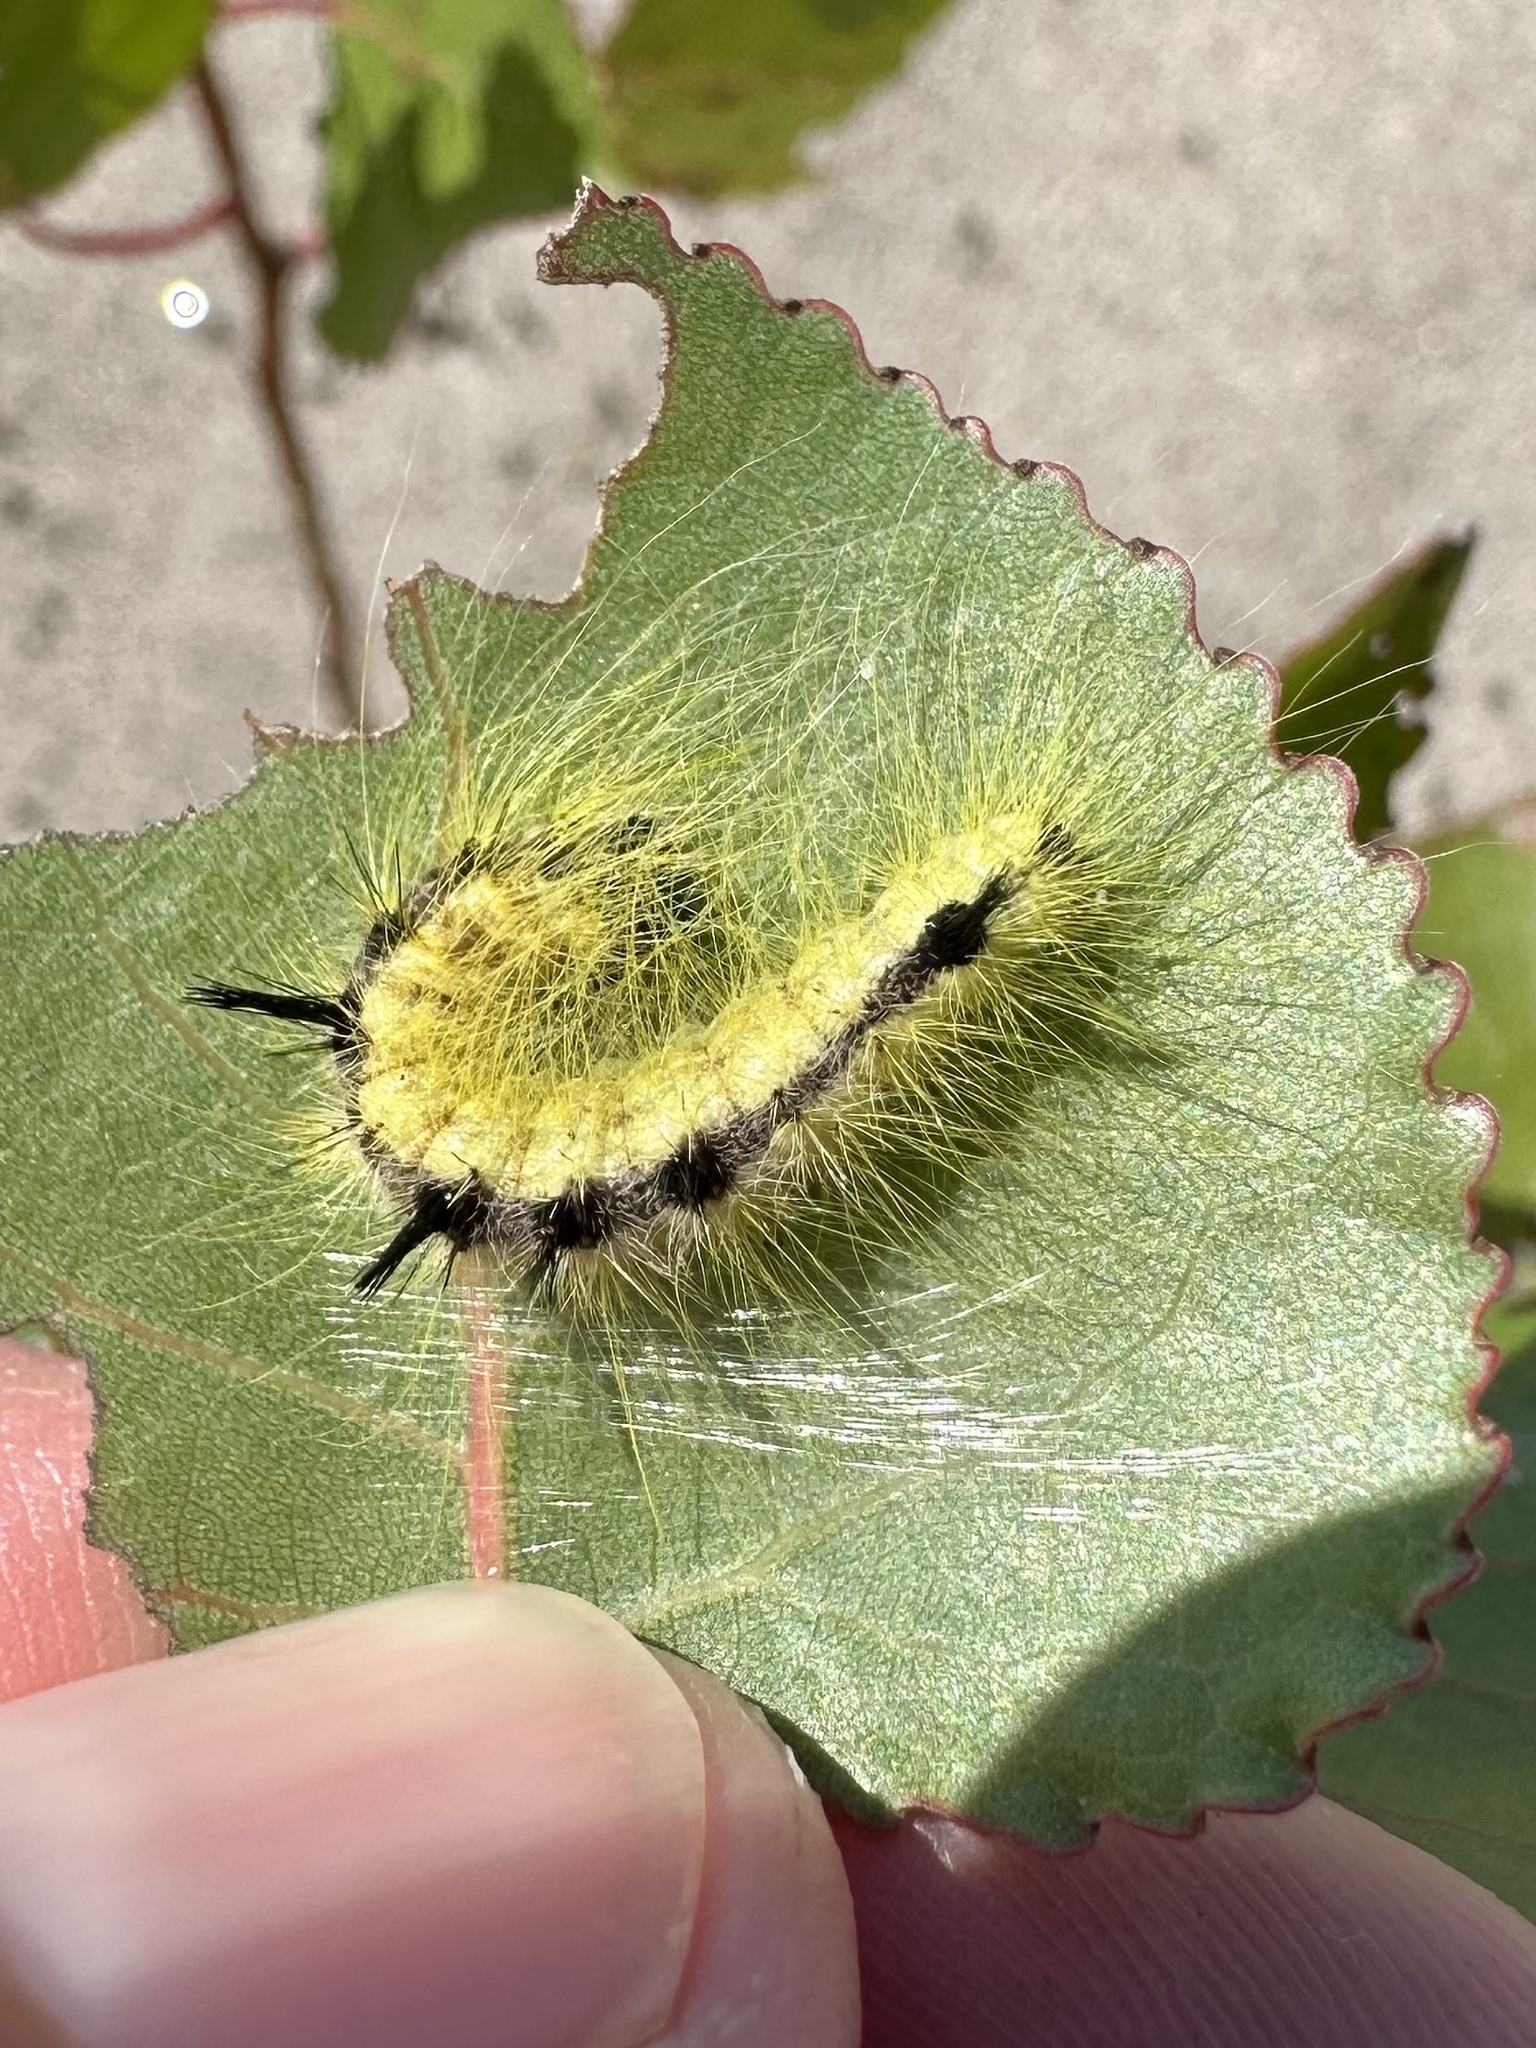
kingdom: Animalia
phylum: Arthropoda
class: Insecta
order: Lepidoptera
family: Noctuidae
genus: Acronicta
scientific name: Acronicta lepusculina
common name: Cottonwood dagger
